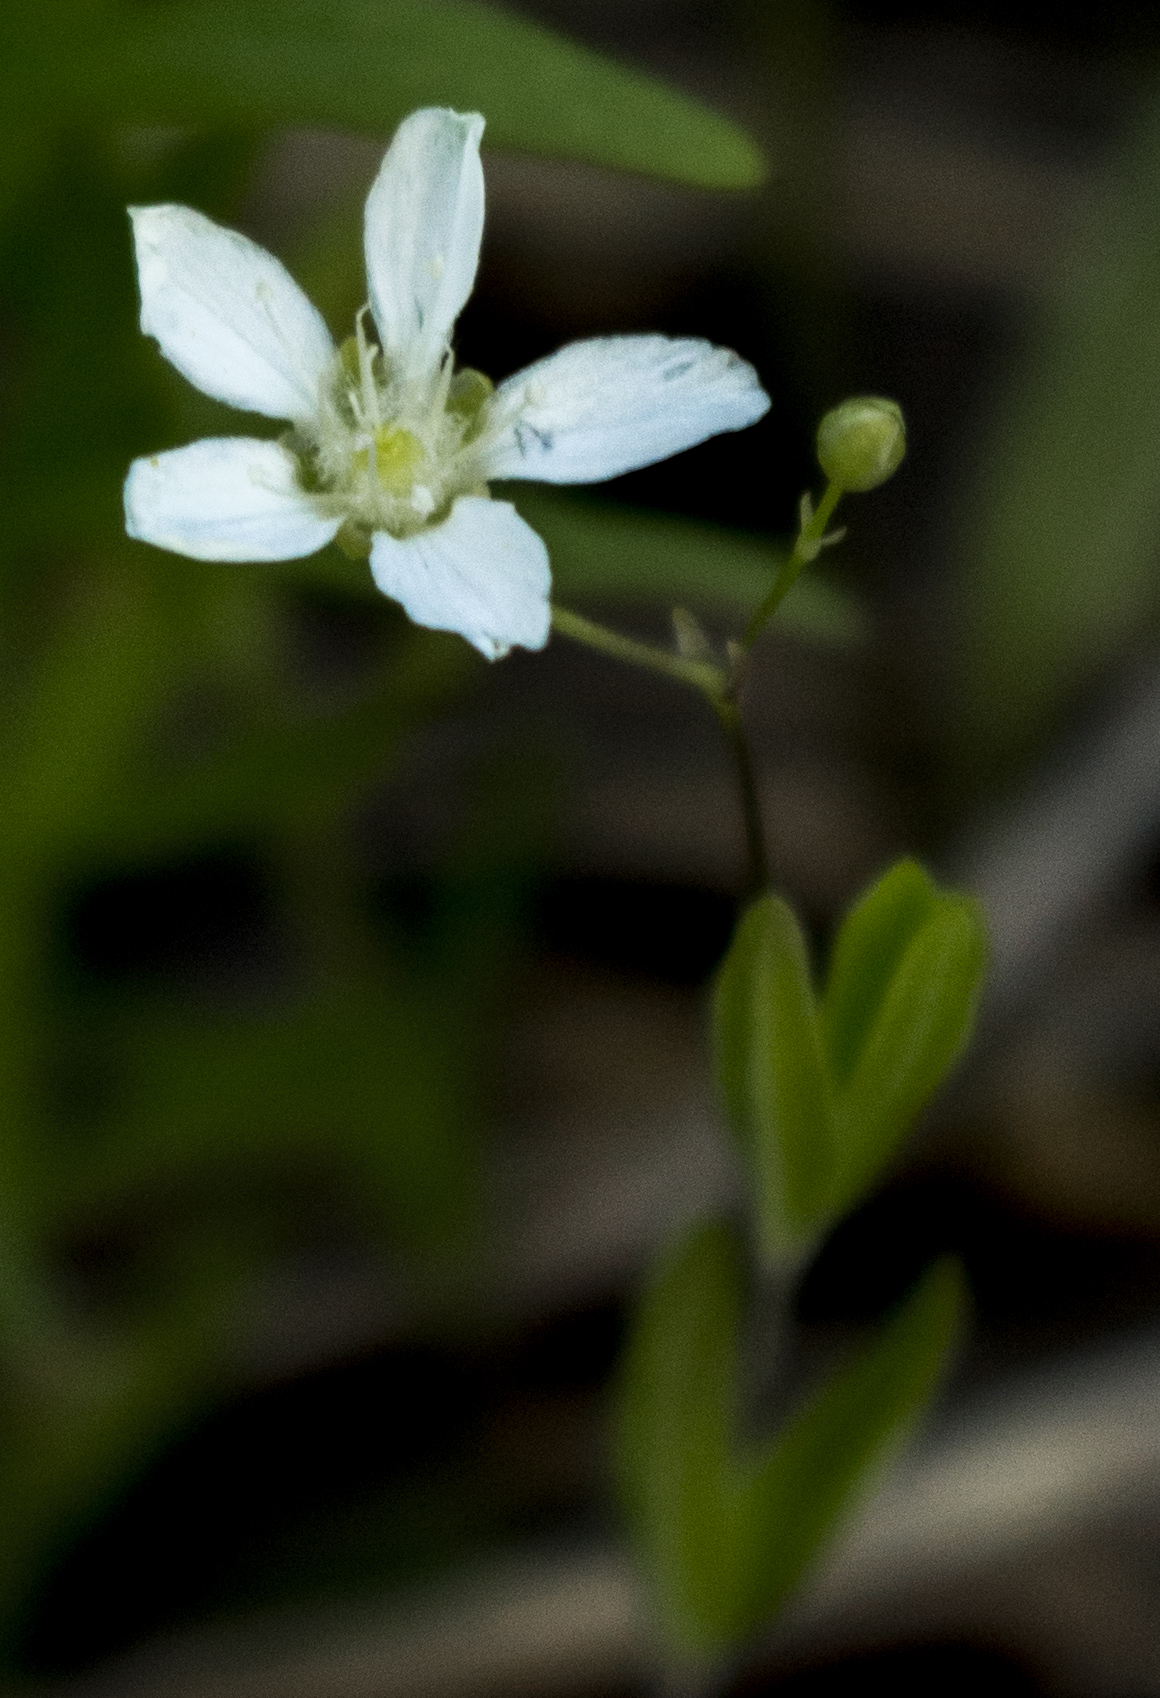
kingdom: Plantae
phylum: Tracheophyta
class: Magnoliopsida
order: Caryophyllales
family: Caryophyllaceae
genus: Moehringia
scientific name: Moehringia lateriflora
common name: Blunt-leaved sandwort
